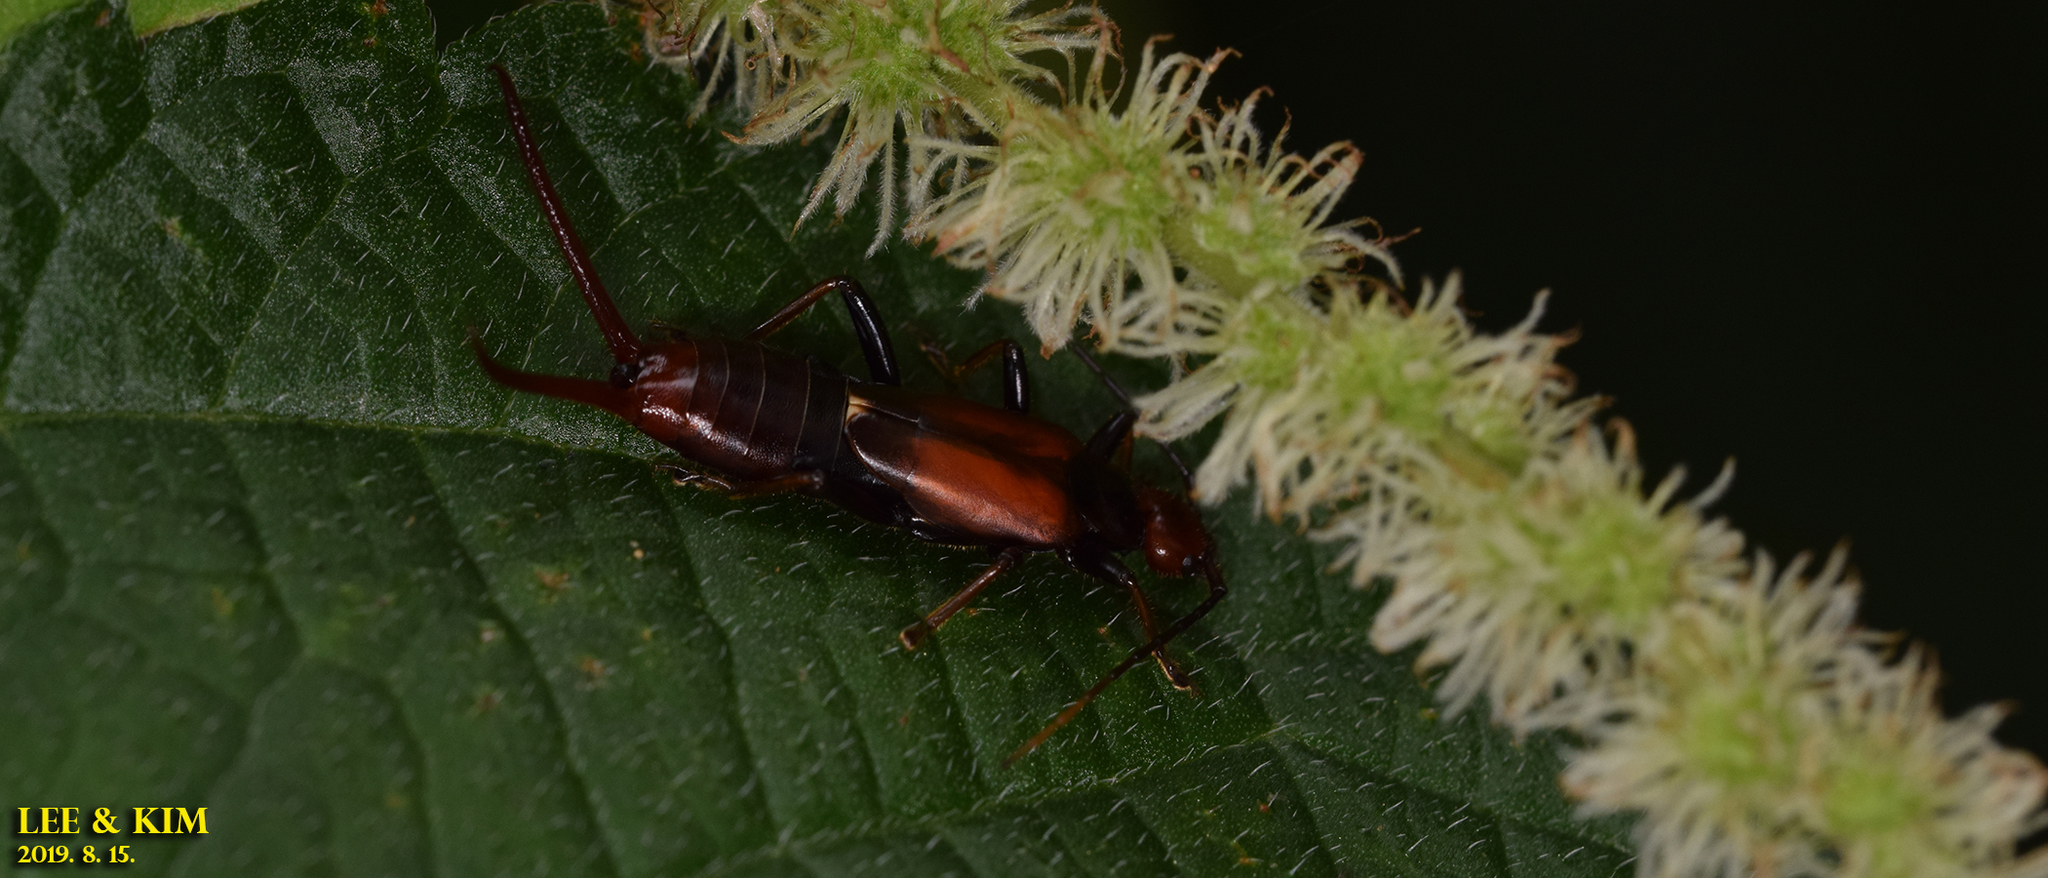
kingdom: Animalia
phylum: Arthropoda
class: Insecta
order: Dermaptera
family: Forficulidae
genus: Timomenus
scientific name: Timomenus komarovi
